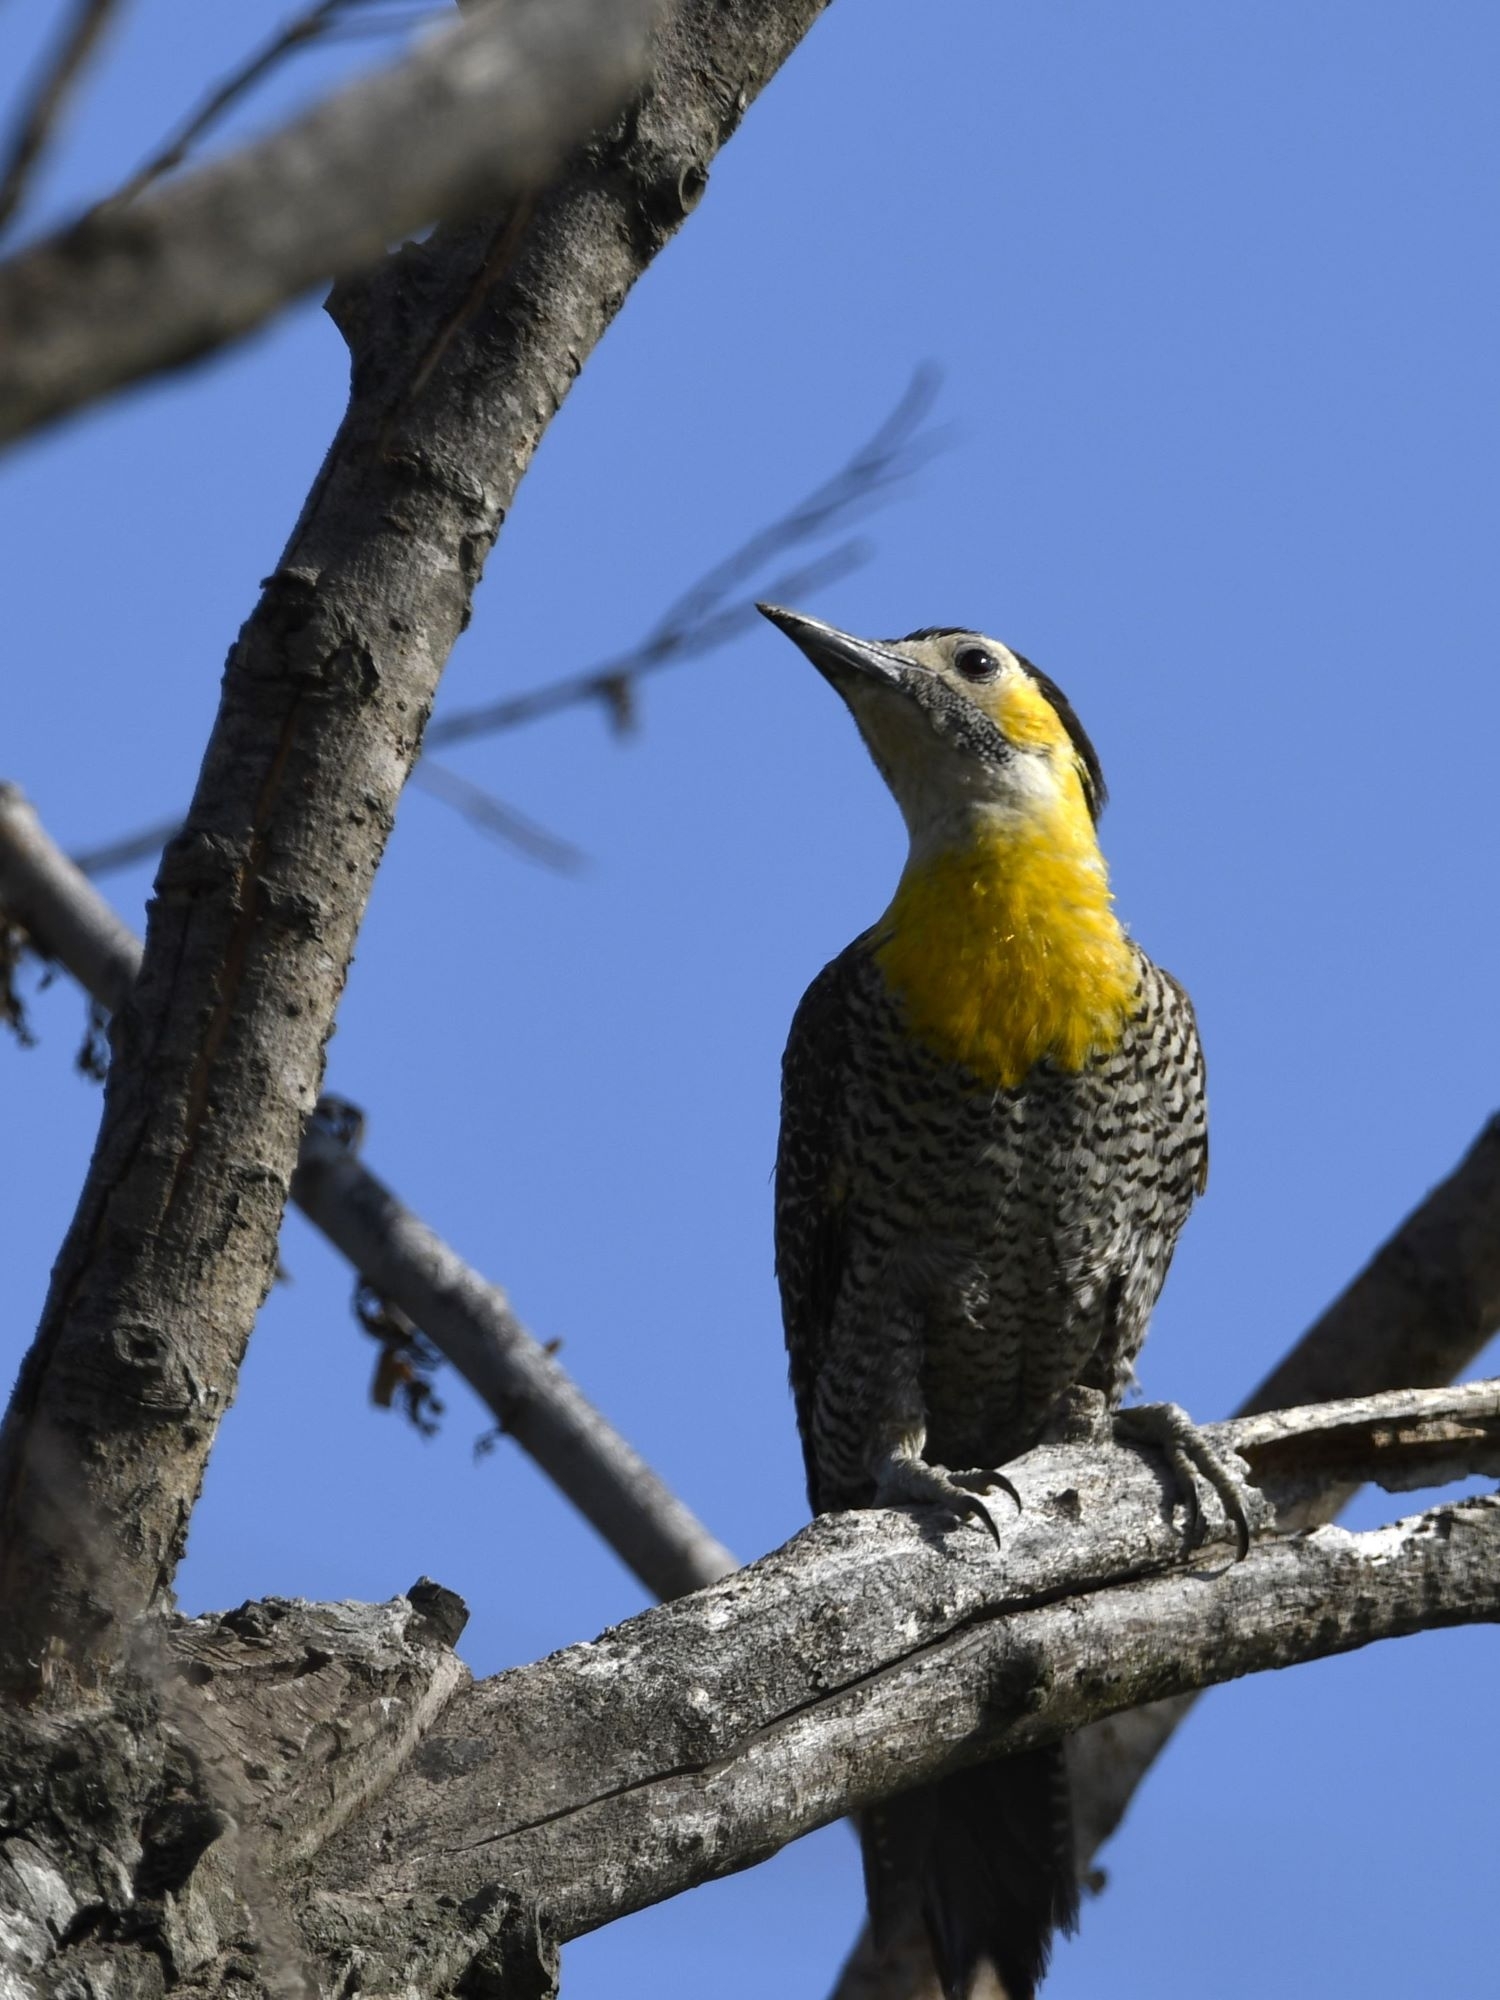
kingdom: Animalia
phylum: Chordata
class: Aves
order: Piciformes
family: Picidae
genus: Colaptes
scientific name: Colaptes campestris
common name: Campo flicker
